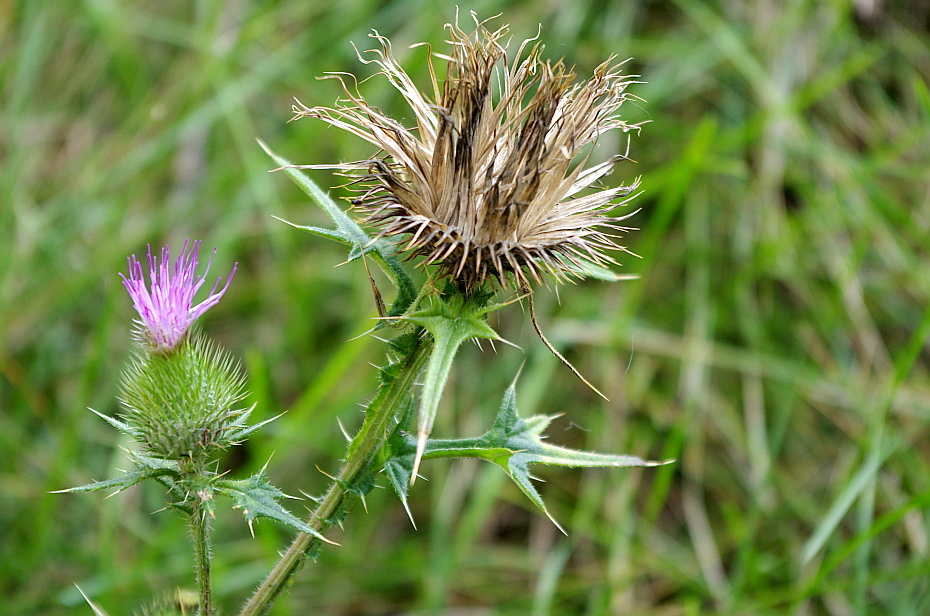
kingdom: Plantae
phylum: Tracheophyta
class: Magnoliopsida
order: Asterales
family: Asteraceae
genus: Cirsium
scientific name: Cirsium vulgare
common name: Bull thistle
